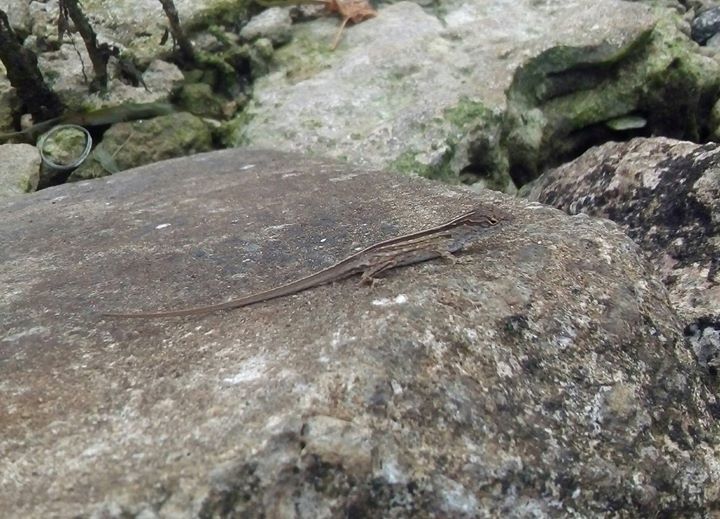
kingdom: Animalia
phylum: Chordata
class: Squamata
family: Dactyloidae
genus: Anolis
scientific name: Anolis sagrei
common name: Brown anole
